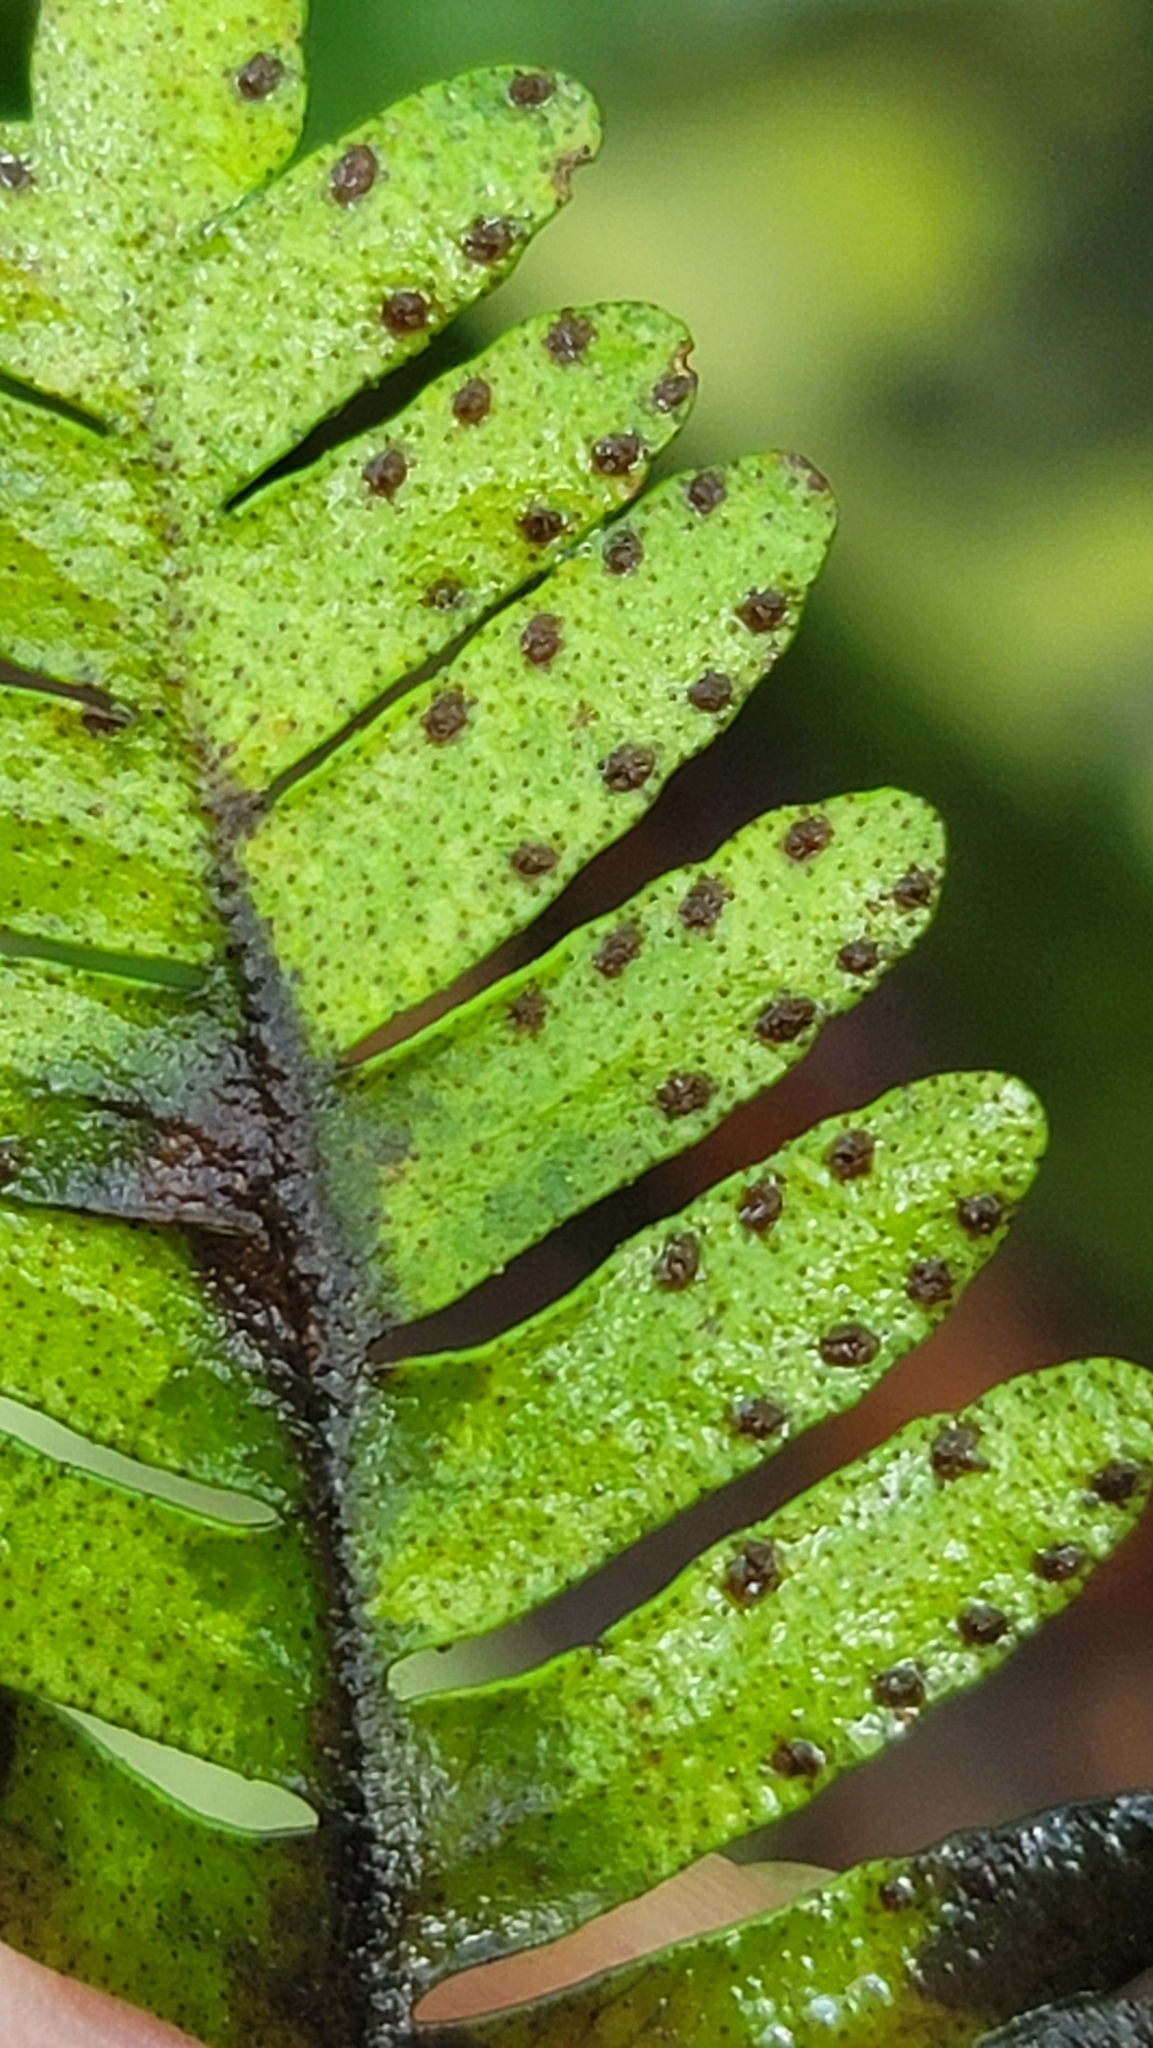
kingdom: Plantae
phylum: Tracheophyta
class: Polypodiopsida
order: Polypodiales
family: Polypodiaceae
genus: Pleopeltis
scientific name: Pleopeltis michauxiana
